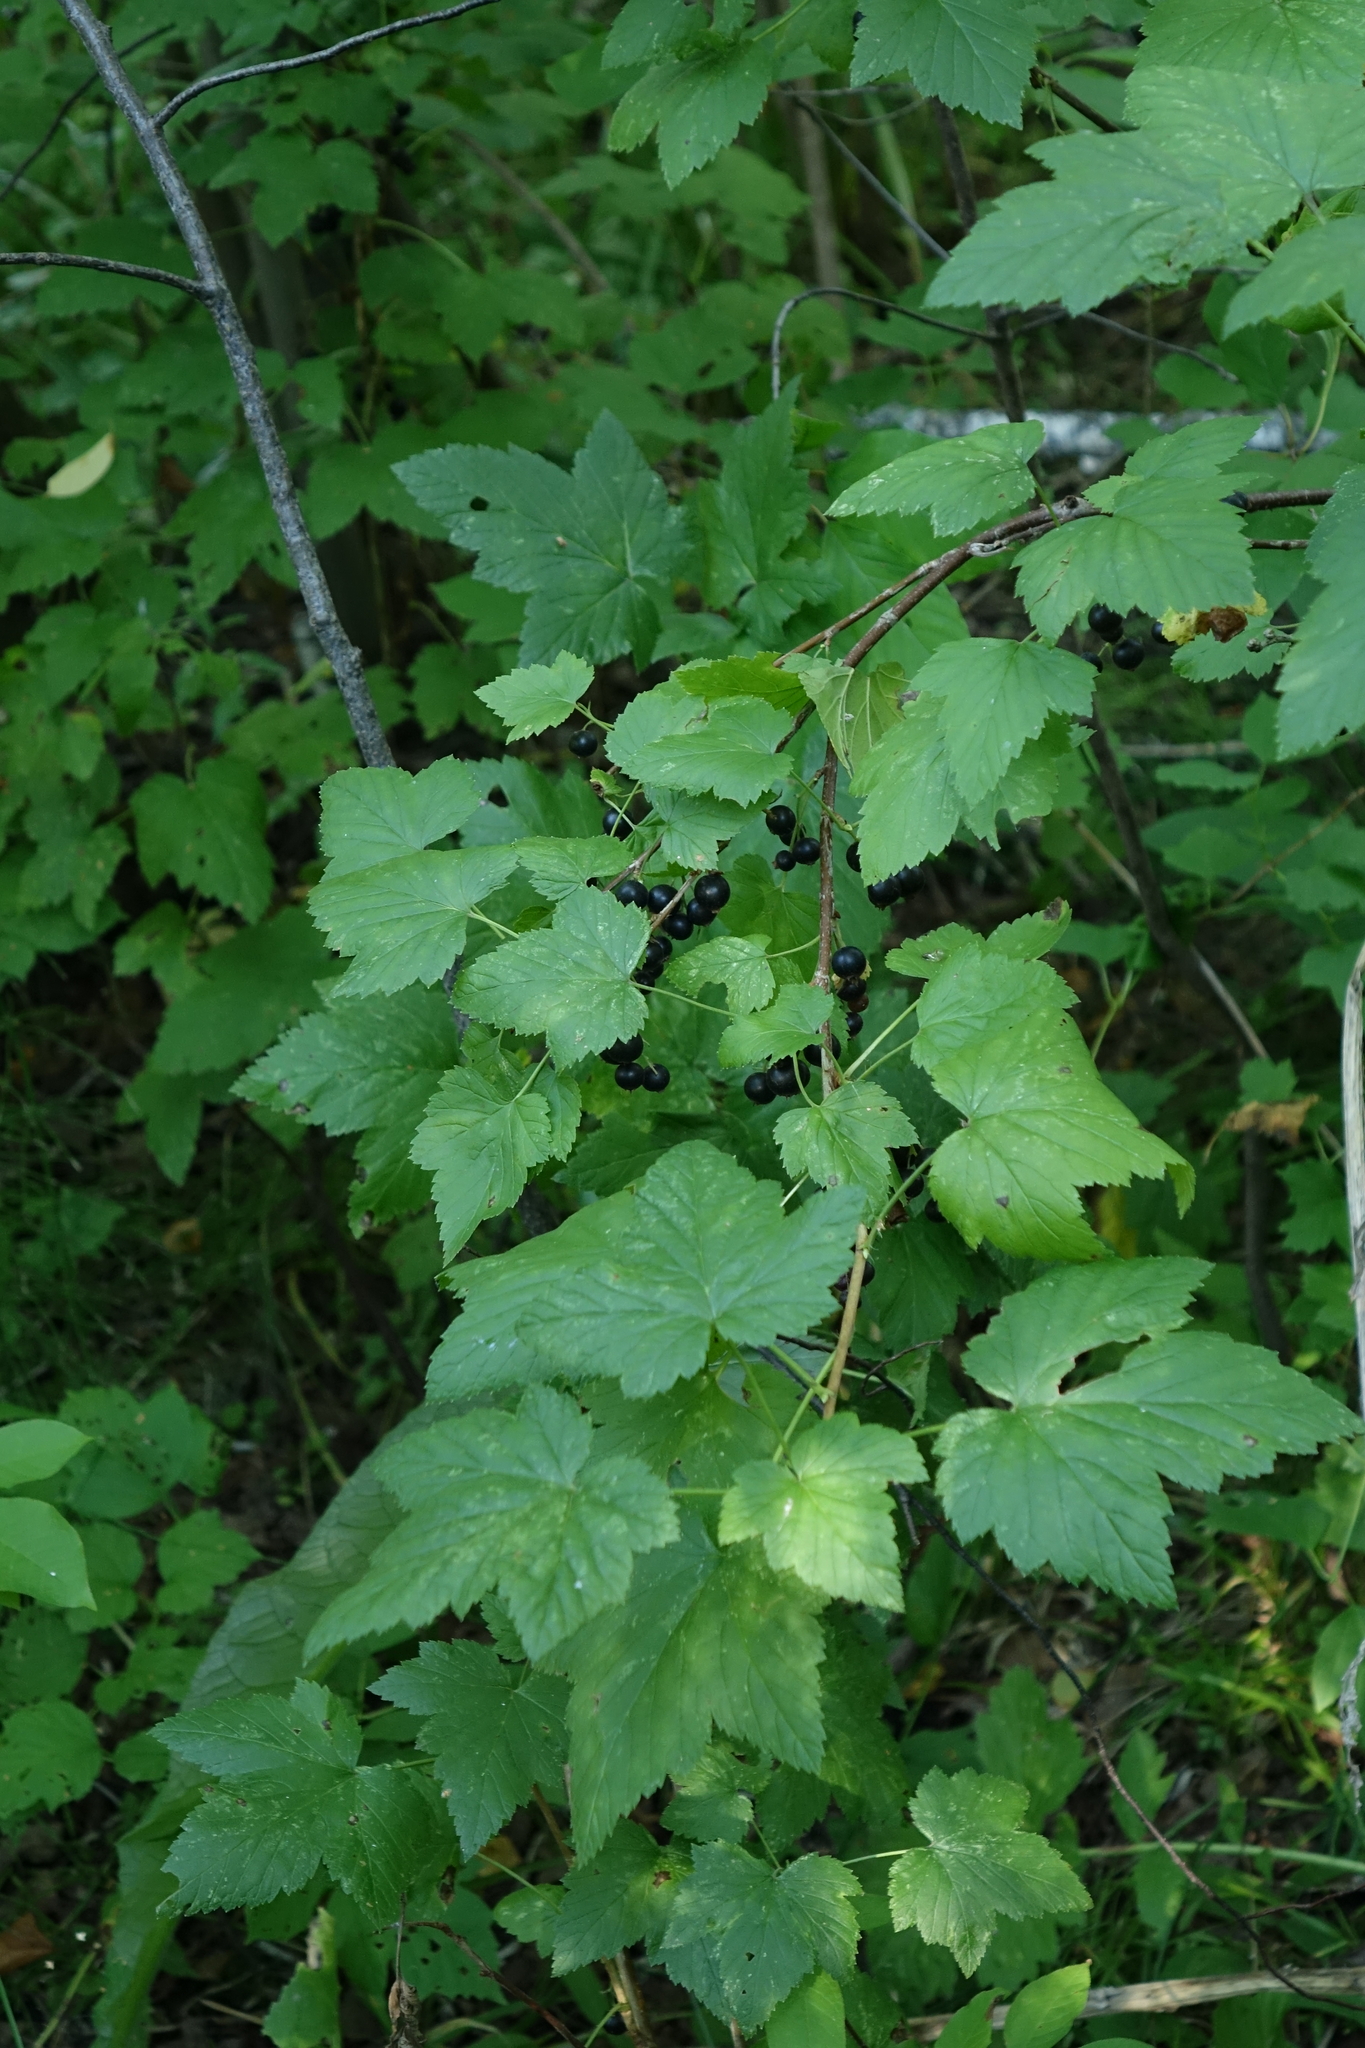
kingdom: Plantae
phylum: Tracheophyta
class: Magnoliopsida
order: Saxifragales
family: Grossulariaceae
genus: Ribes
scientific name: Ribes nigrum
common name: Black currant
